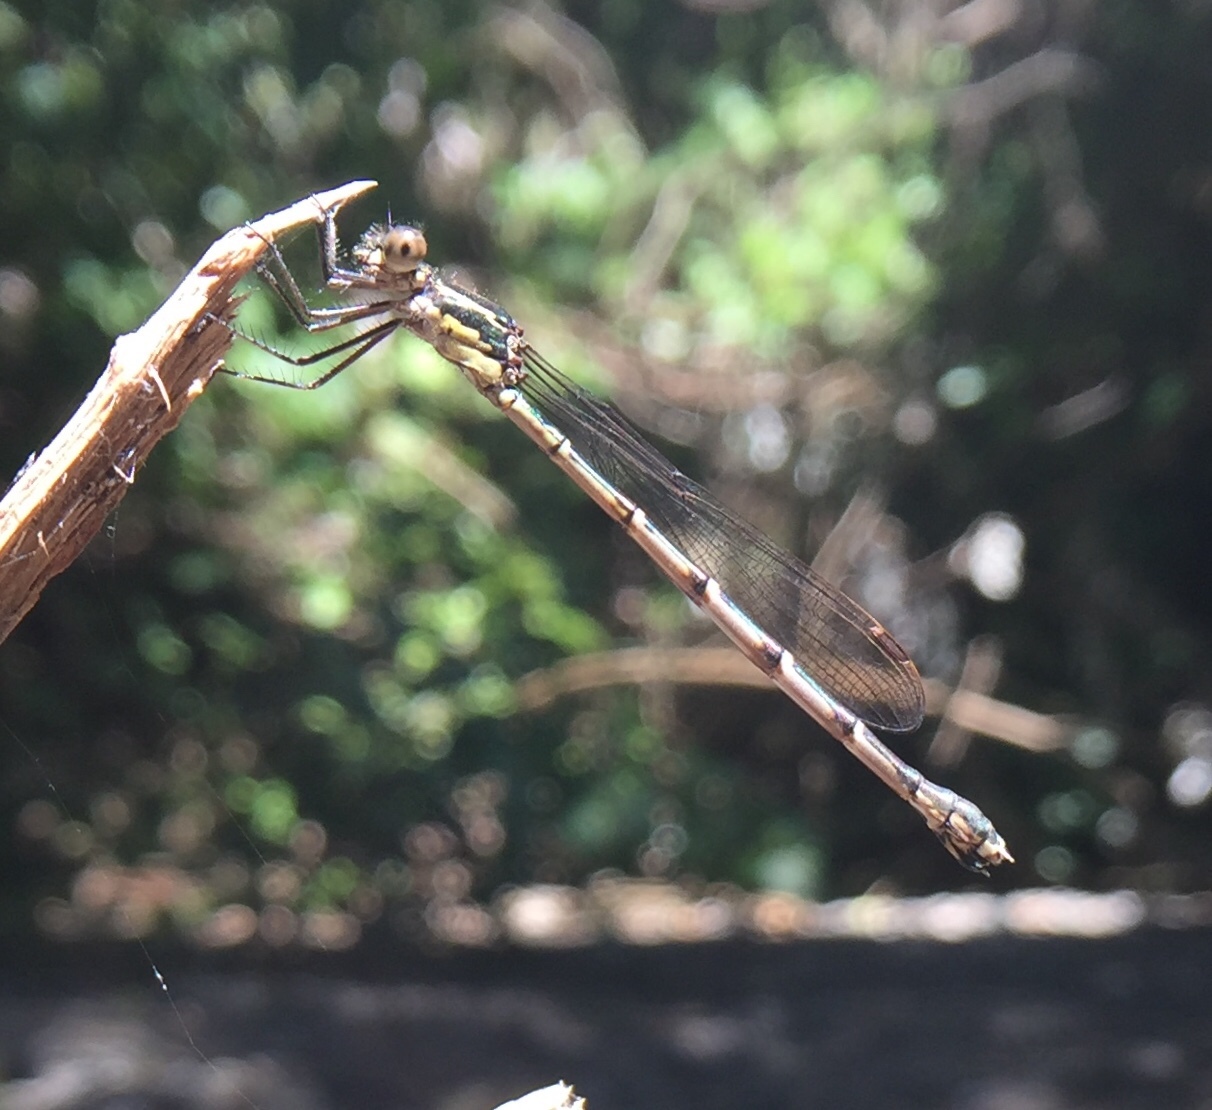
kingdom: Animalia
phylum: Arthropoda
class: Insecta
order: Odonata
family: Lestidae
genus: Austrolestes
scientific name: Austrolestes colensonis
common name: Blue damselfly
